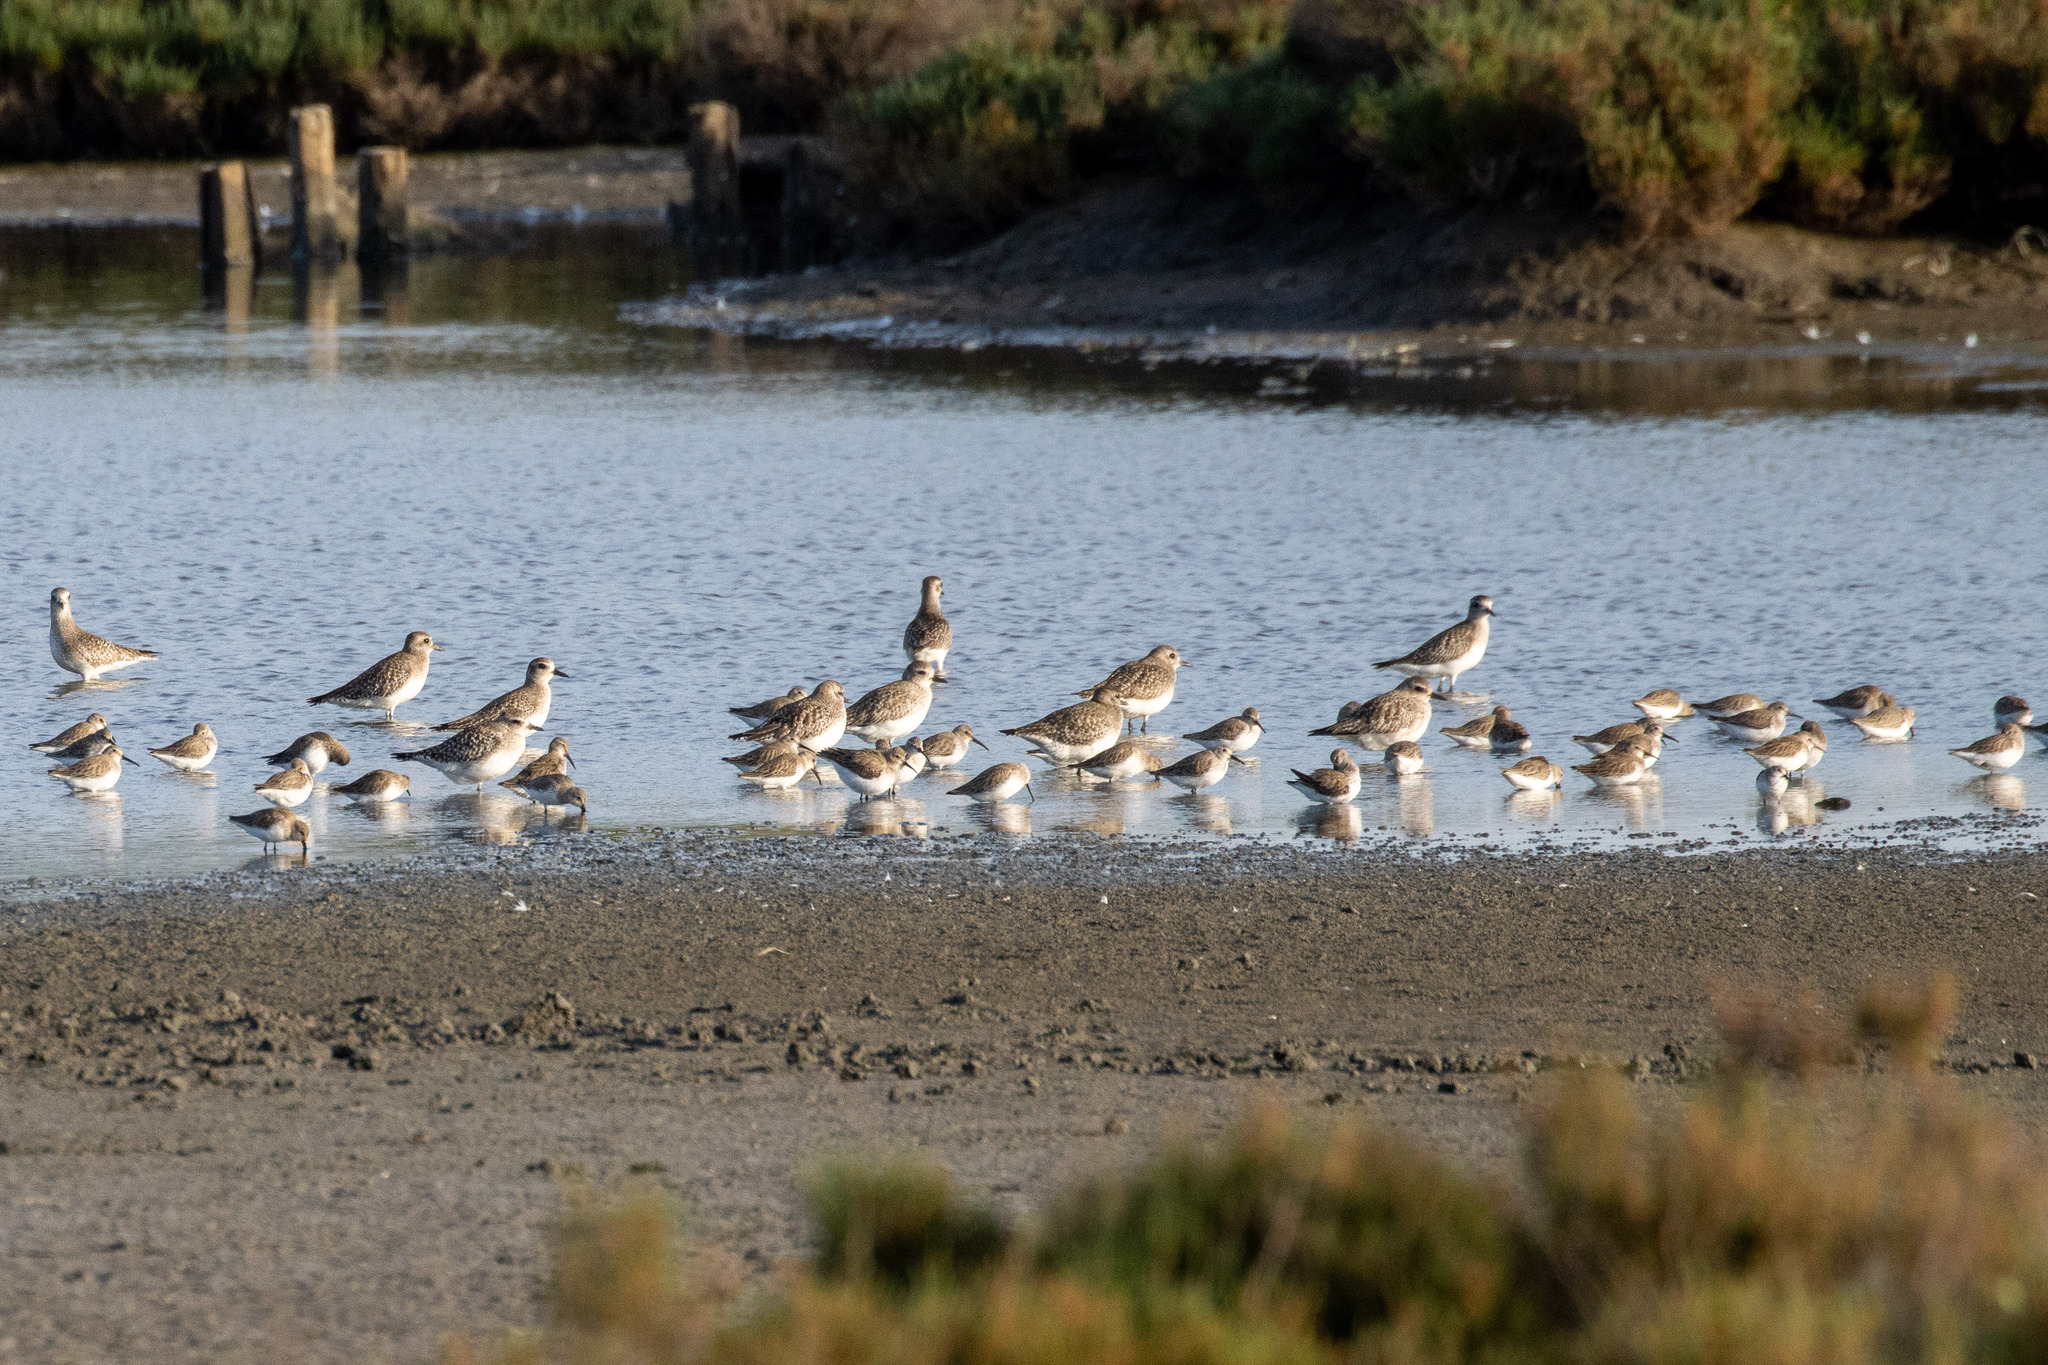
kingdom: Animalia
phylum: Chordata
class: Aves
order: Charadriiformes
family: Charadriidae
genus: Pluvialis
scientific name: Pluvialis squatarola
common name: Grey plover
